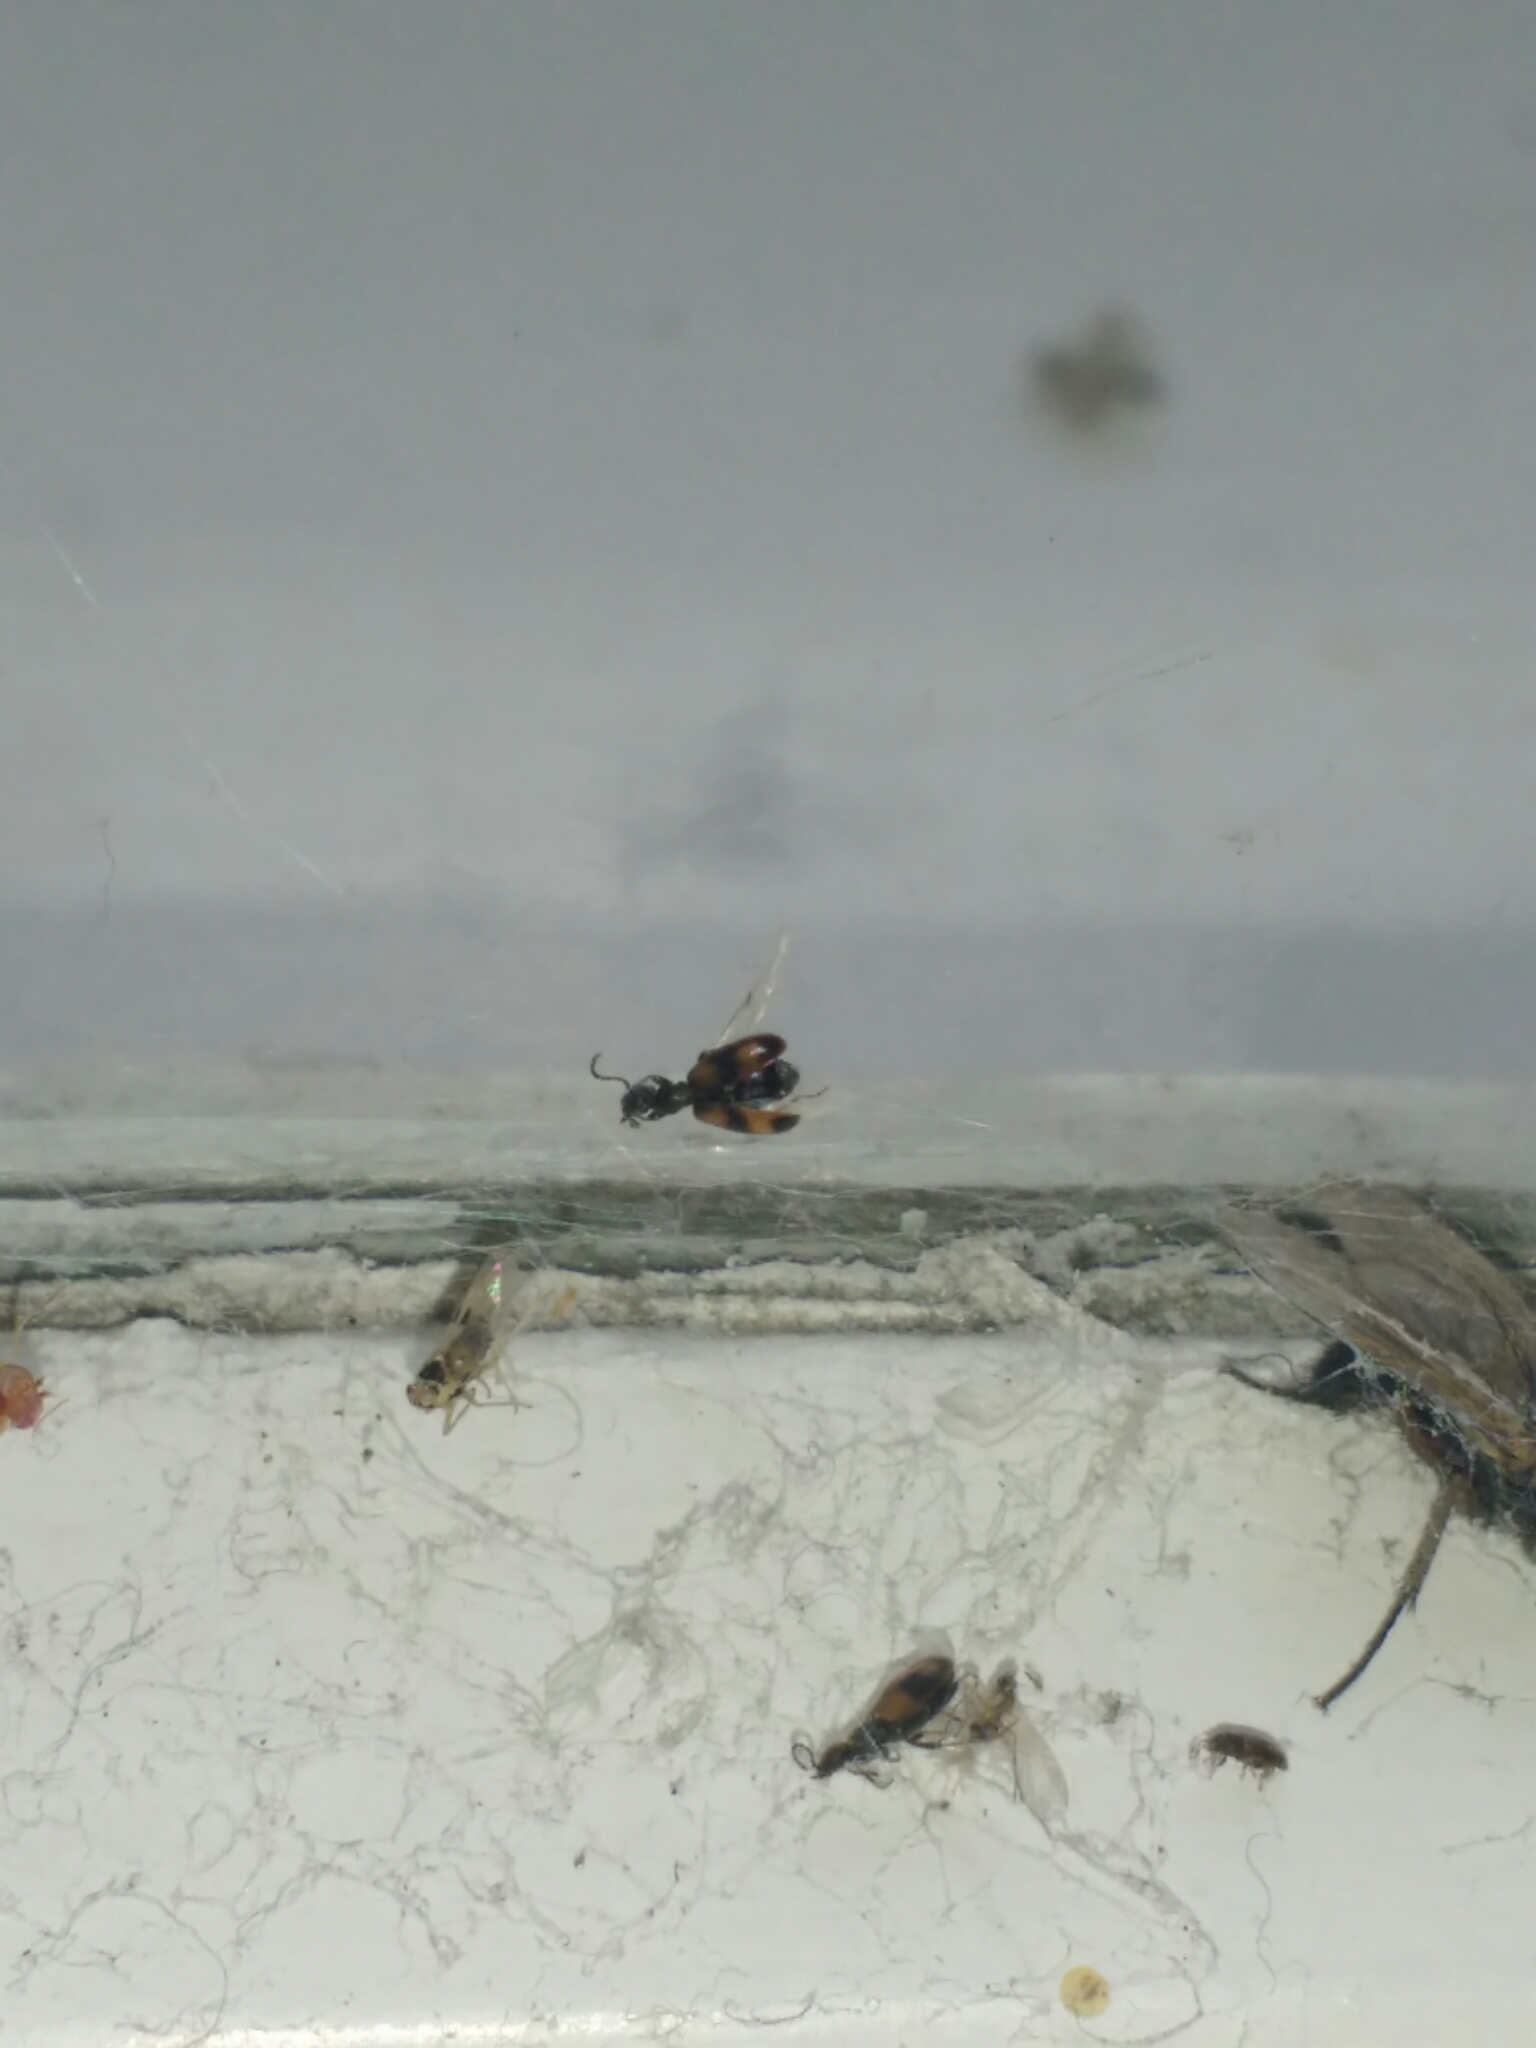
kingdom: Animalia
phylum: Arthropoda
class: Insecta
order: Coleoptera
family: Anthicidae
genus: Anthicus
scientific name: Anthicus antherinus
